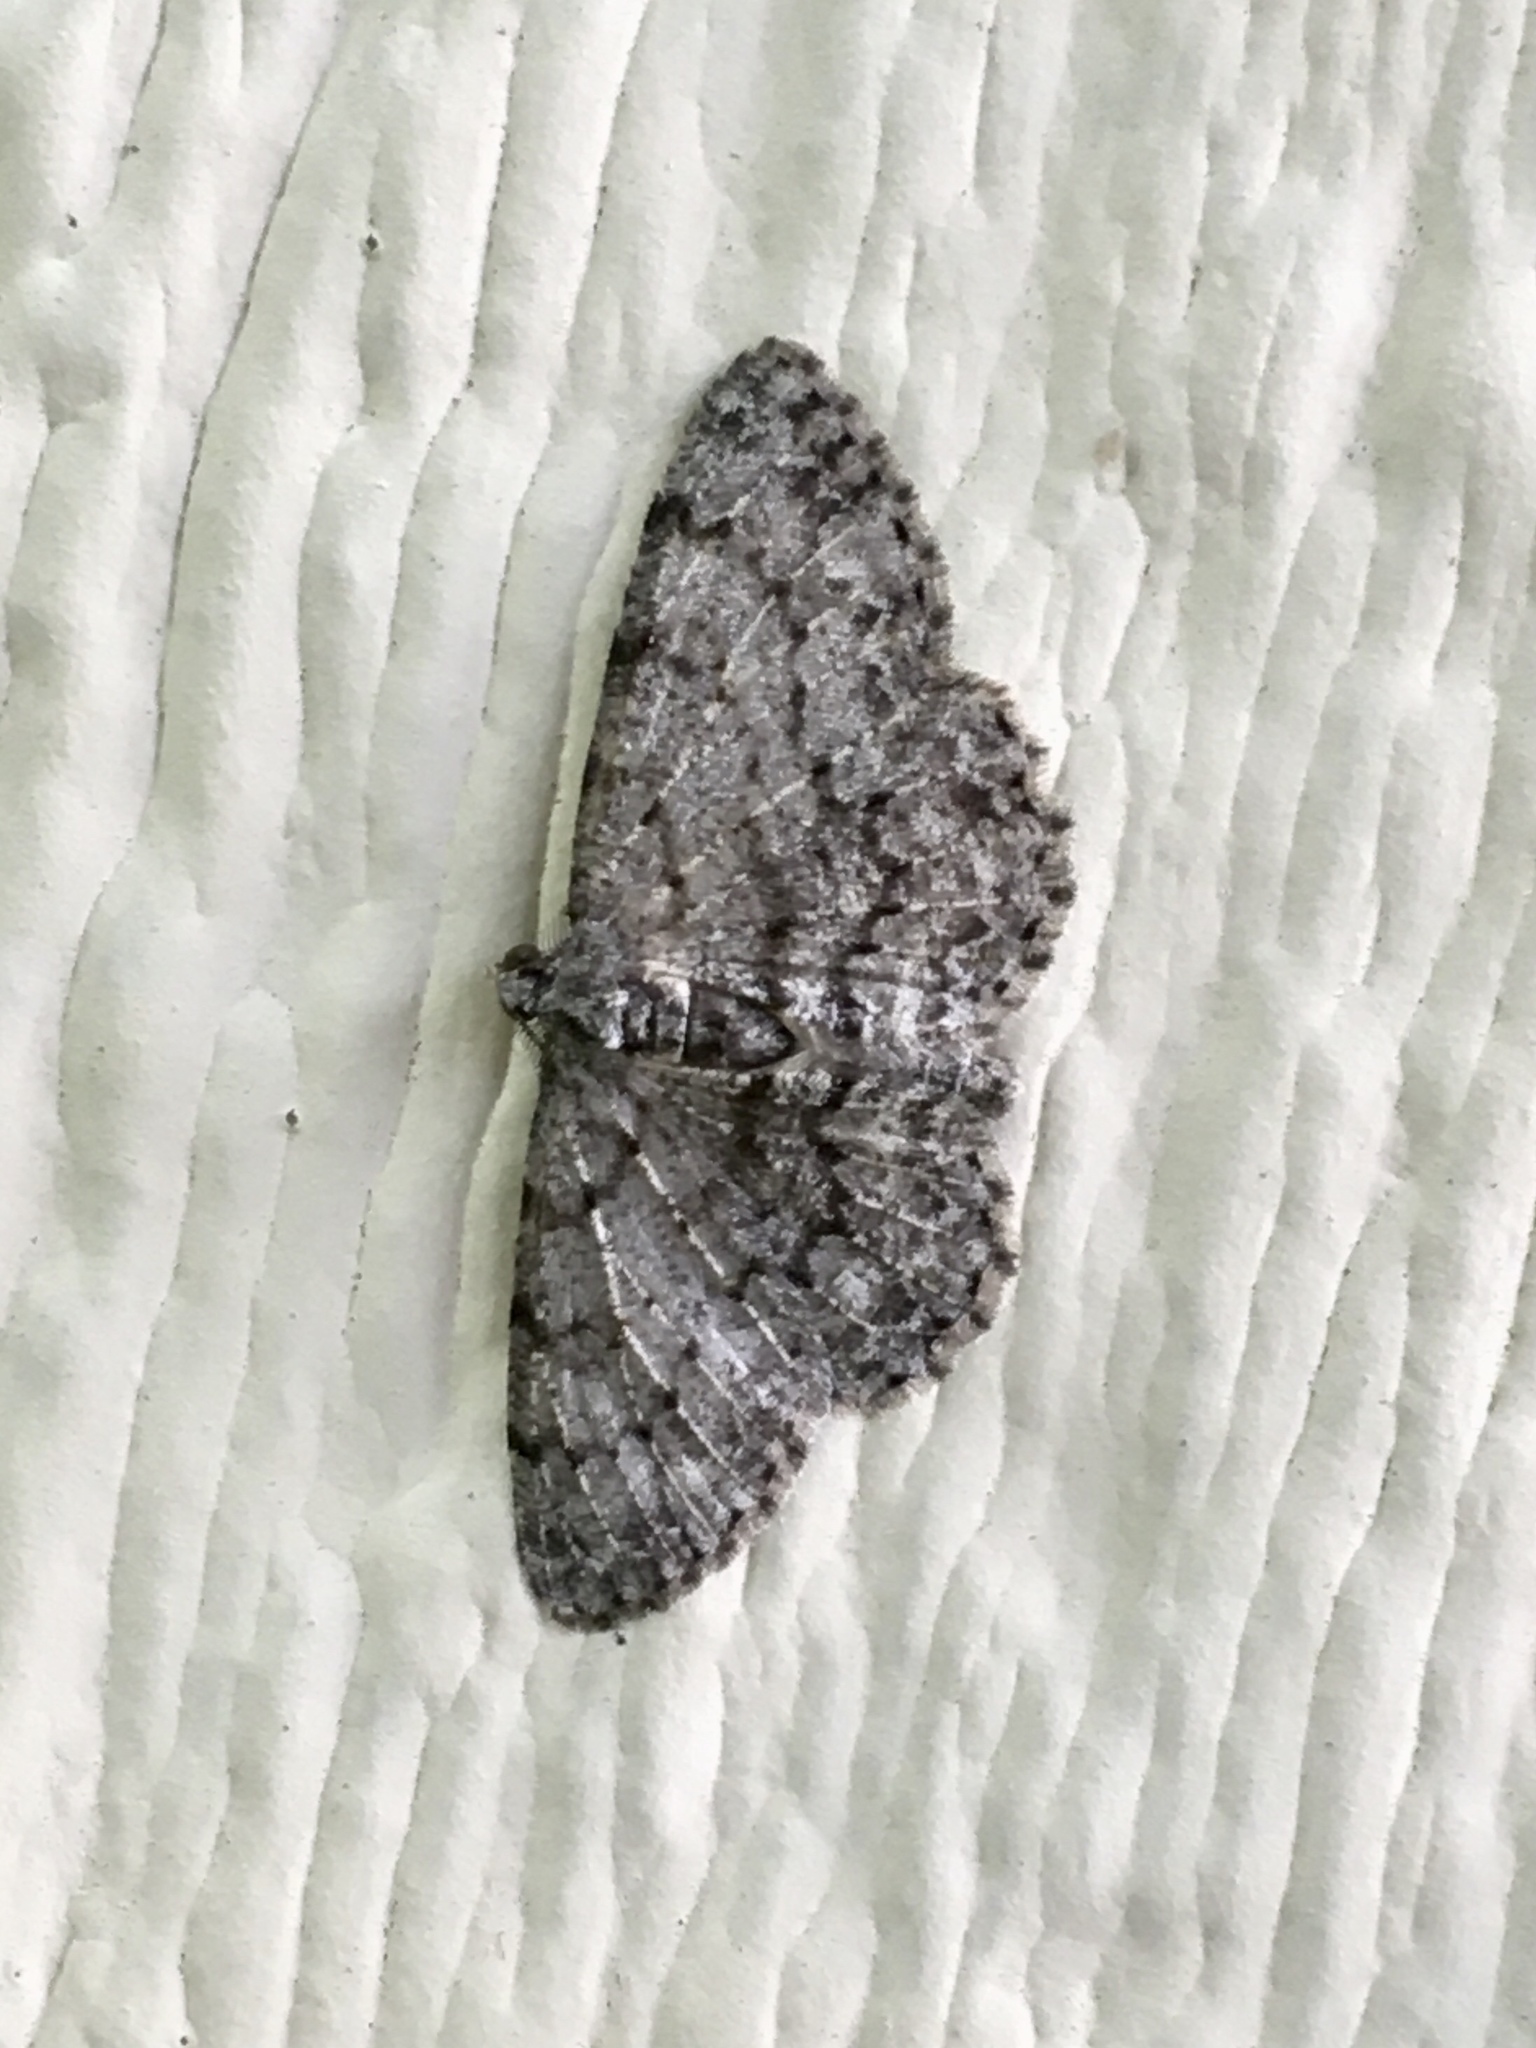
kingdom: Animalia
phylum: Arthropoda
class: Insecta
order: Lepidoptera
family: Geometridae
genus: Protoboarmia
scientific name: Protoboarmia porcelaria
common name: Porcelain gray
